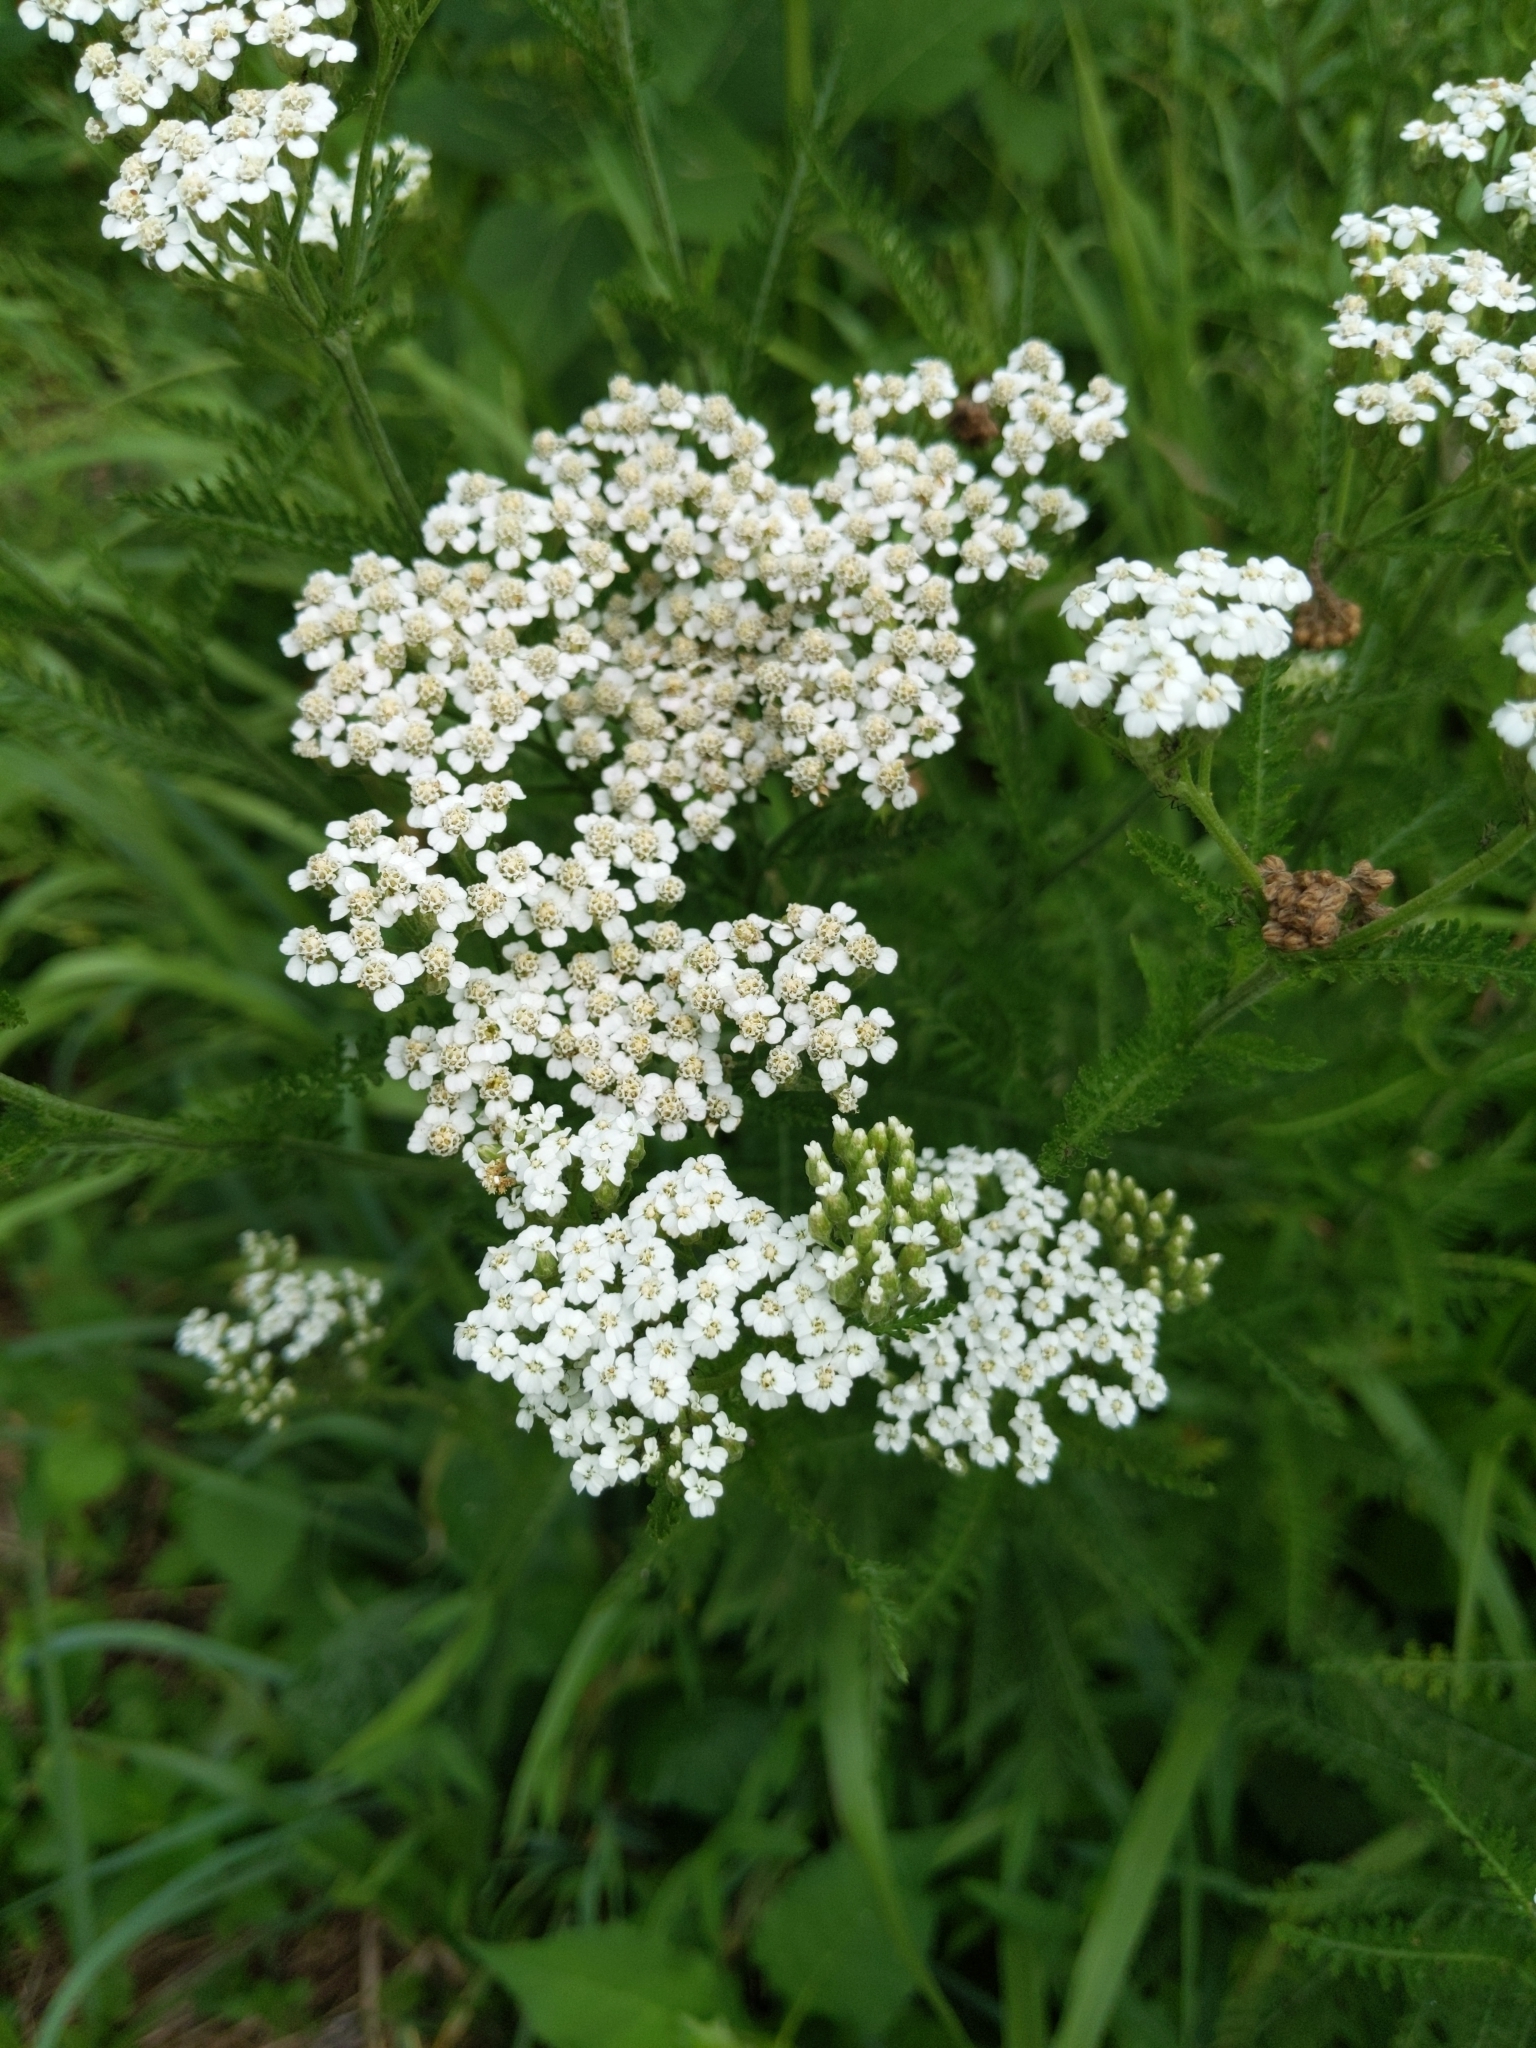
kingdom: Plantae
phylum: Tracheophyta
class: Magnoliopsida
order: Asterales
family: Asteraceae
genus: Achillea
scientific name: Achillea millefolium
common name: Yarrow
